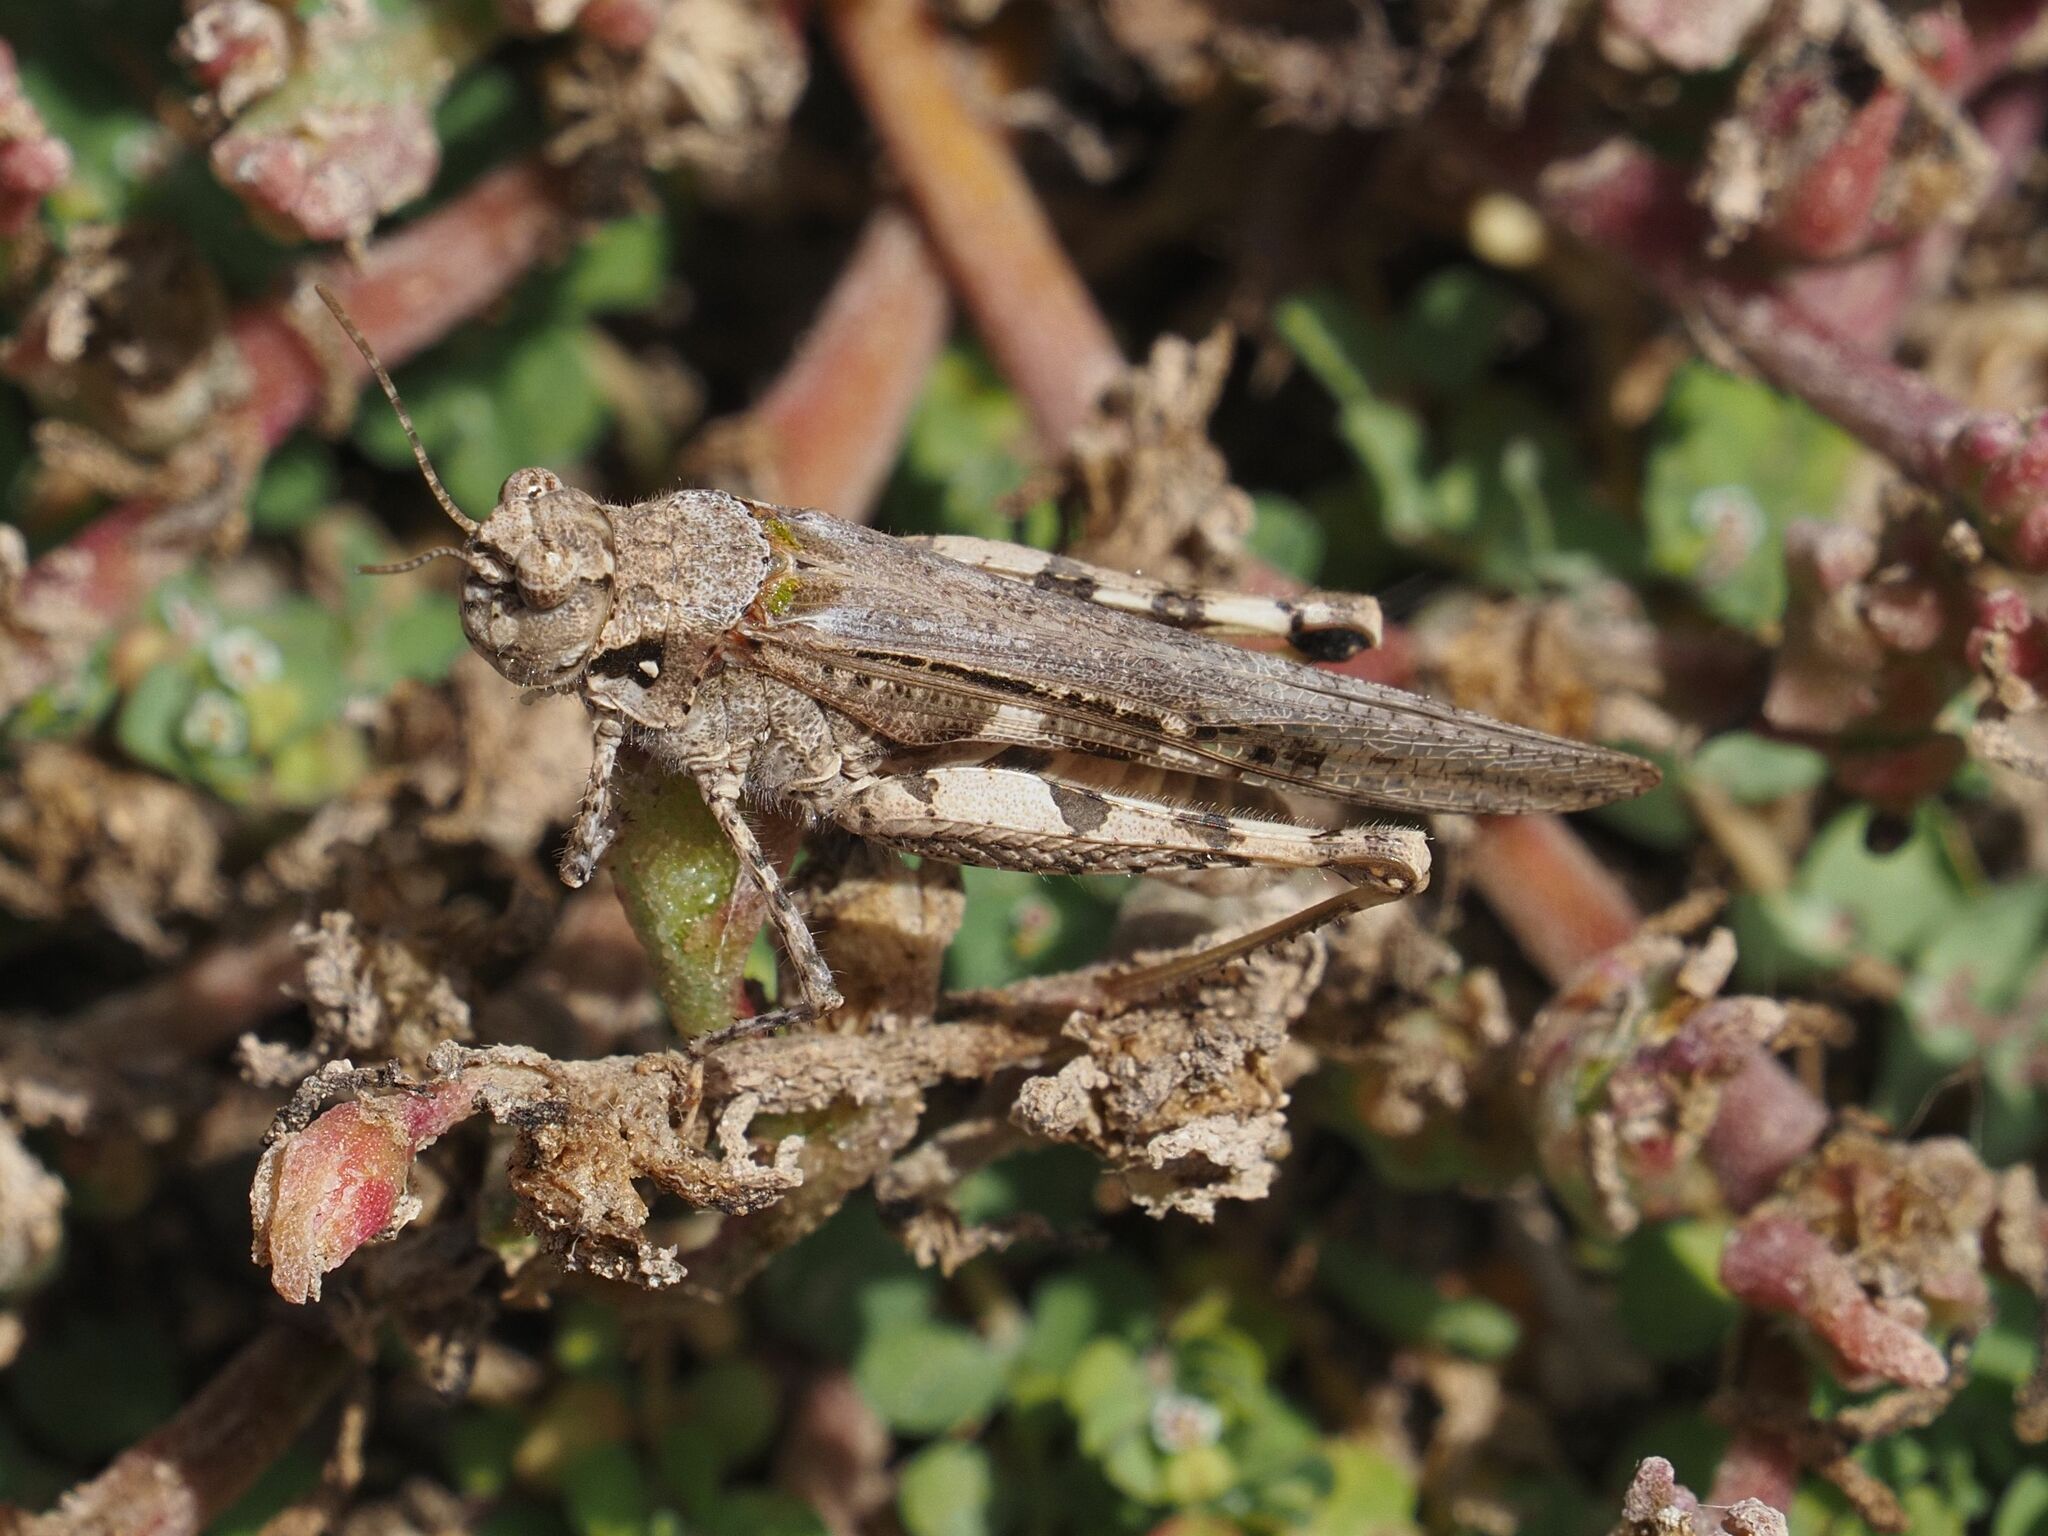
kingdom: Animalia
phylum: Arthropoda
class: Insecta
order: Orthoptera
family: Acrididae
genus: Acrotylus
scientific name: Acrotylus insubricus
